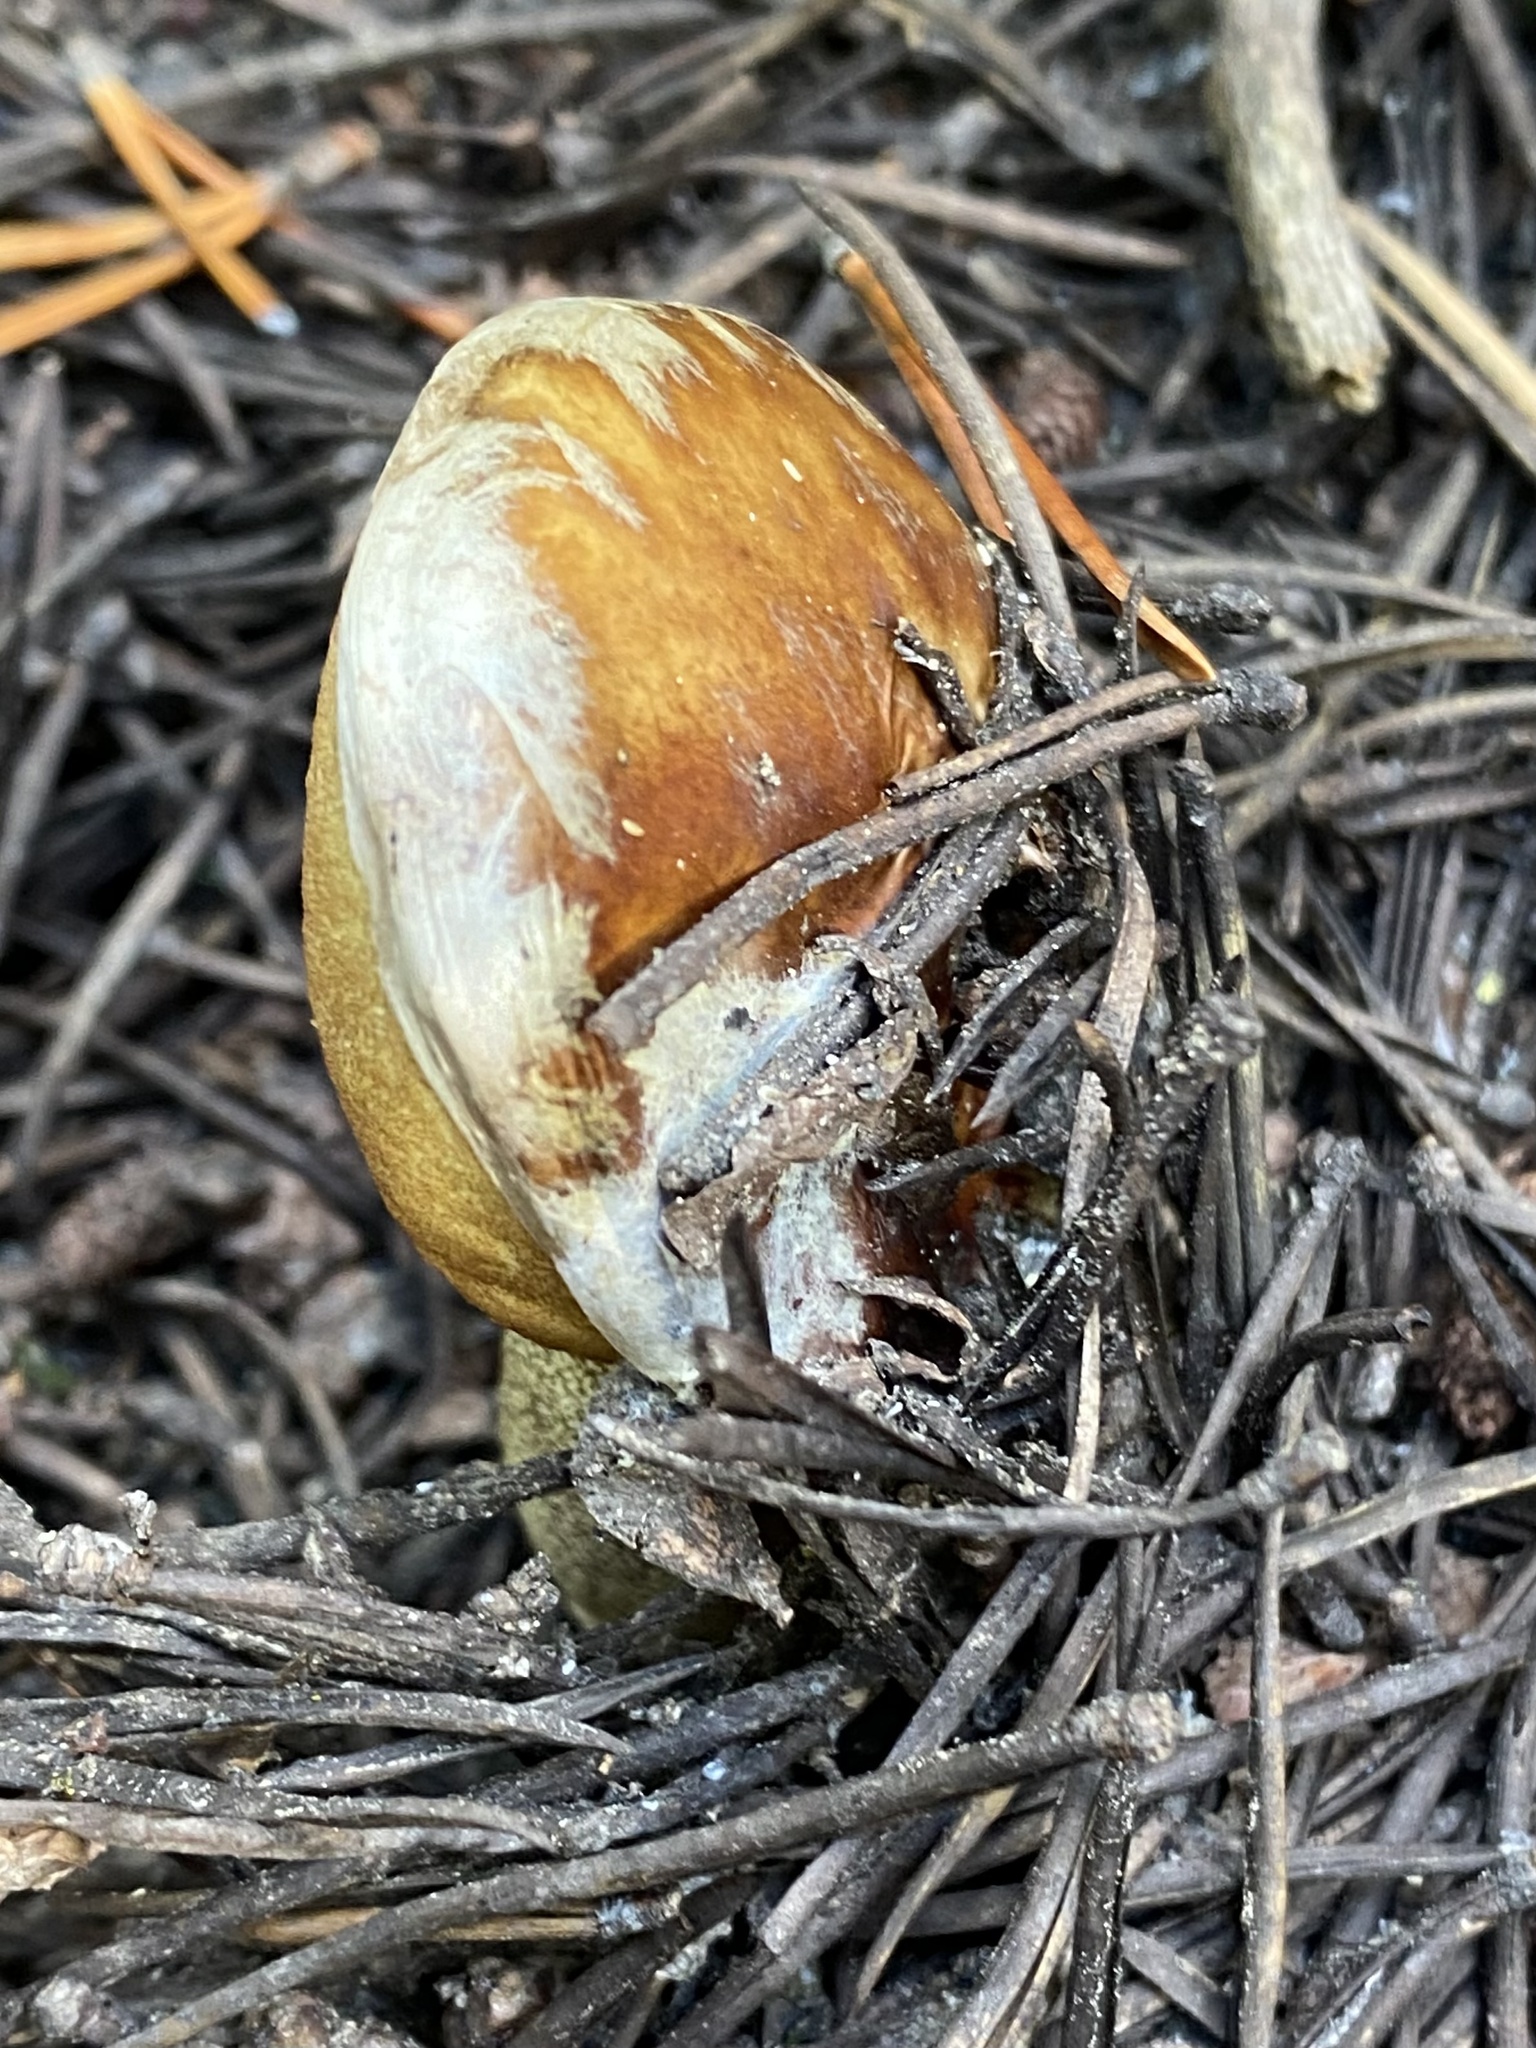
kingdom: Fungi
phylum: Basidiomycota
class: Agaricomycetes
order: Boletales
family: Boletaceae
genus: Leccinum
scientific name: Leccinum
